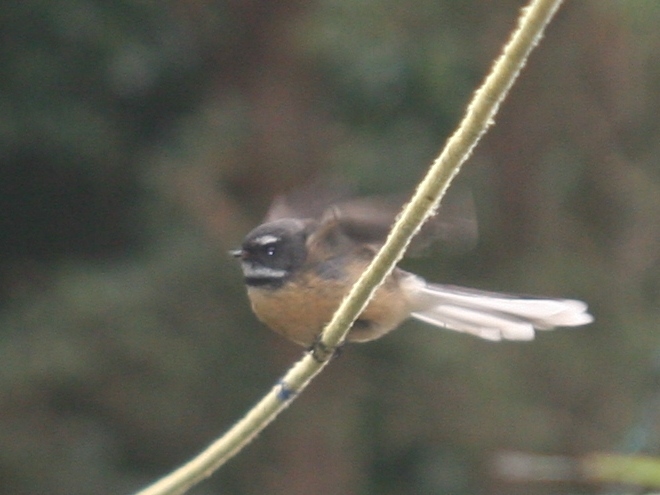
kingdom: Animalia
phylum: Chordata
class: Aves
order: Passeriformes
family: Rhipiduridae
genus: Rhipidura
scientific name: Rhipidura fuliginosa
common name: New zealand fantail
